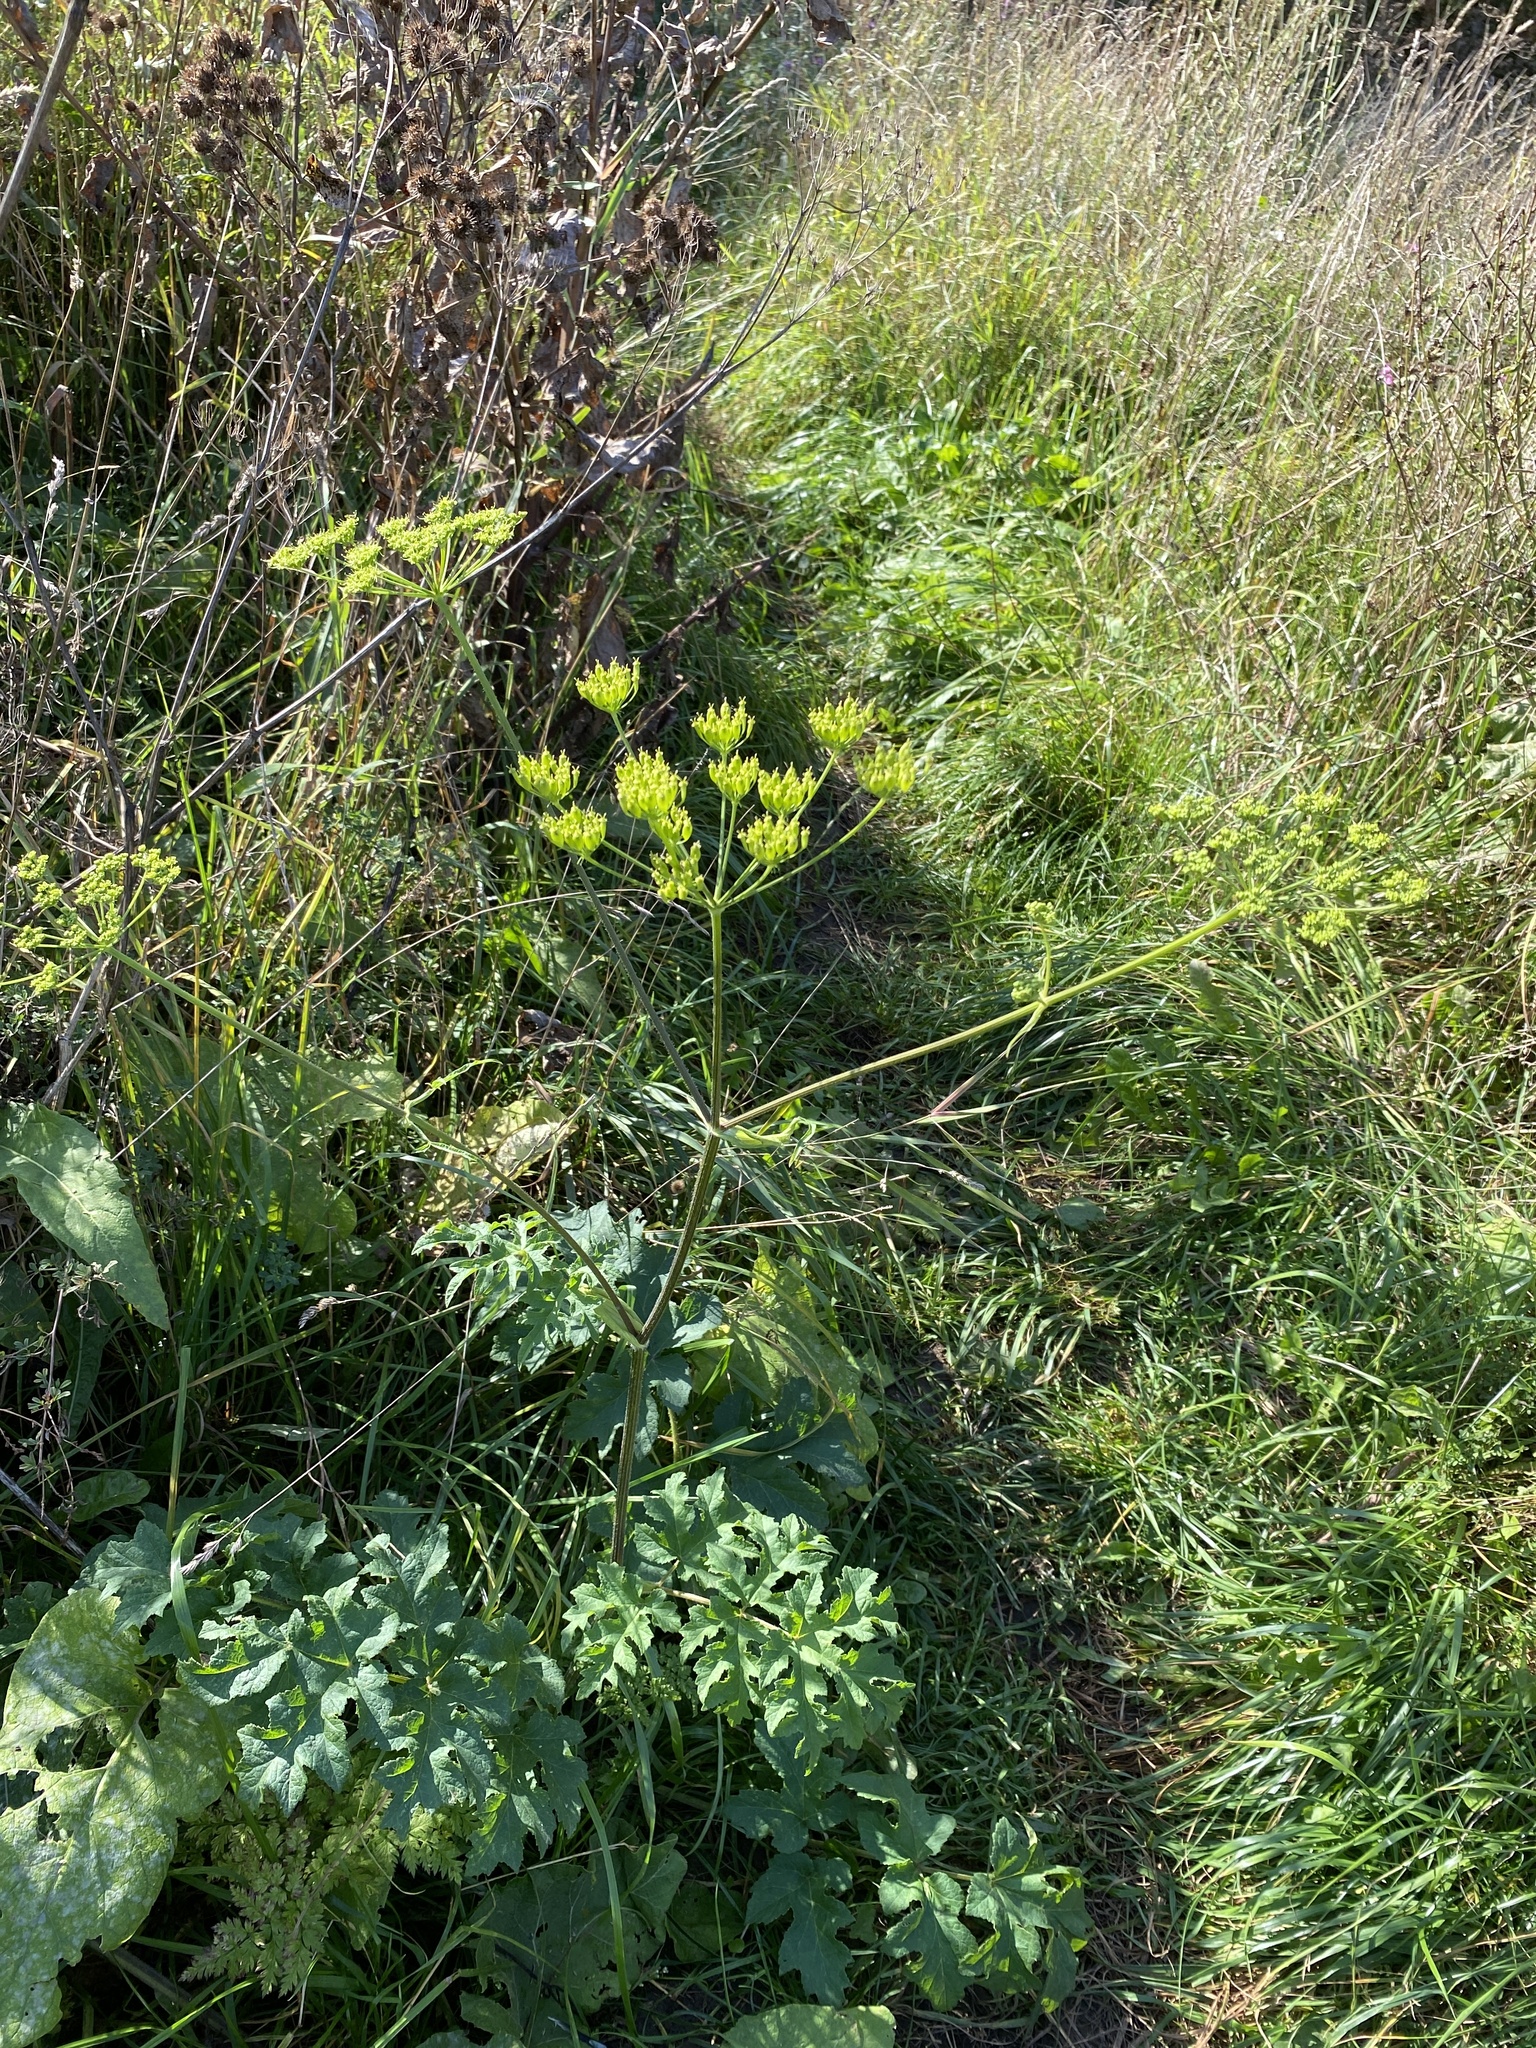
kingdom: Plantae
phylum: Tracheophyta
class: Magnoliopsida
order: Apiales
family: Apiaceae
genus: Heracleum
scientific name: Heracleum sphondylium
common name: Hogweed
